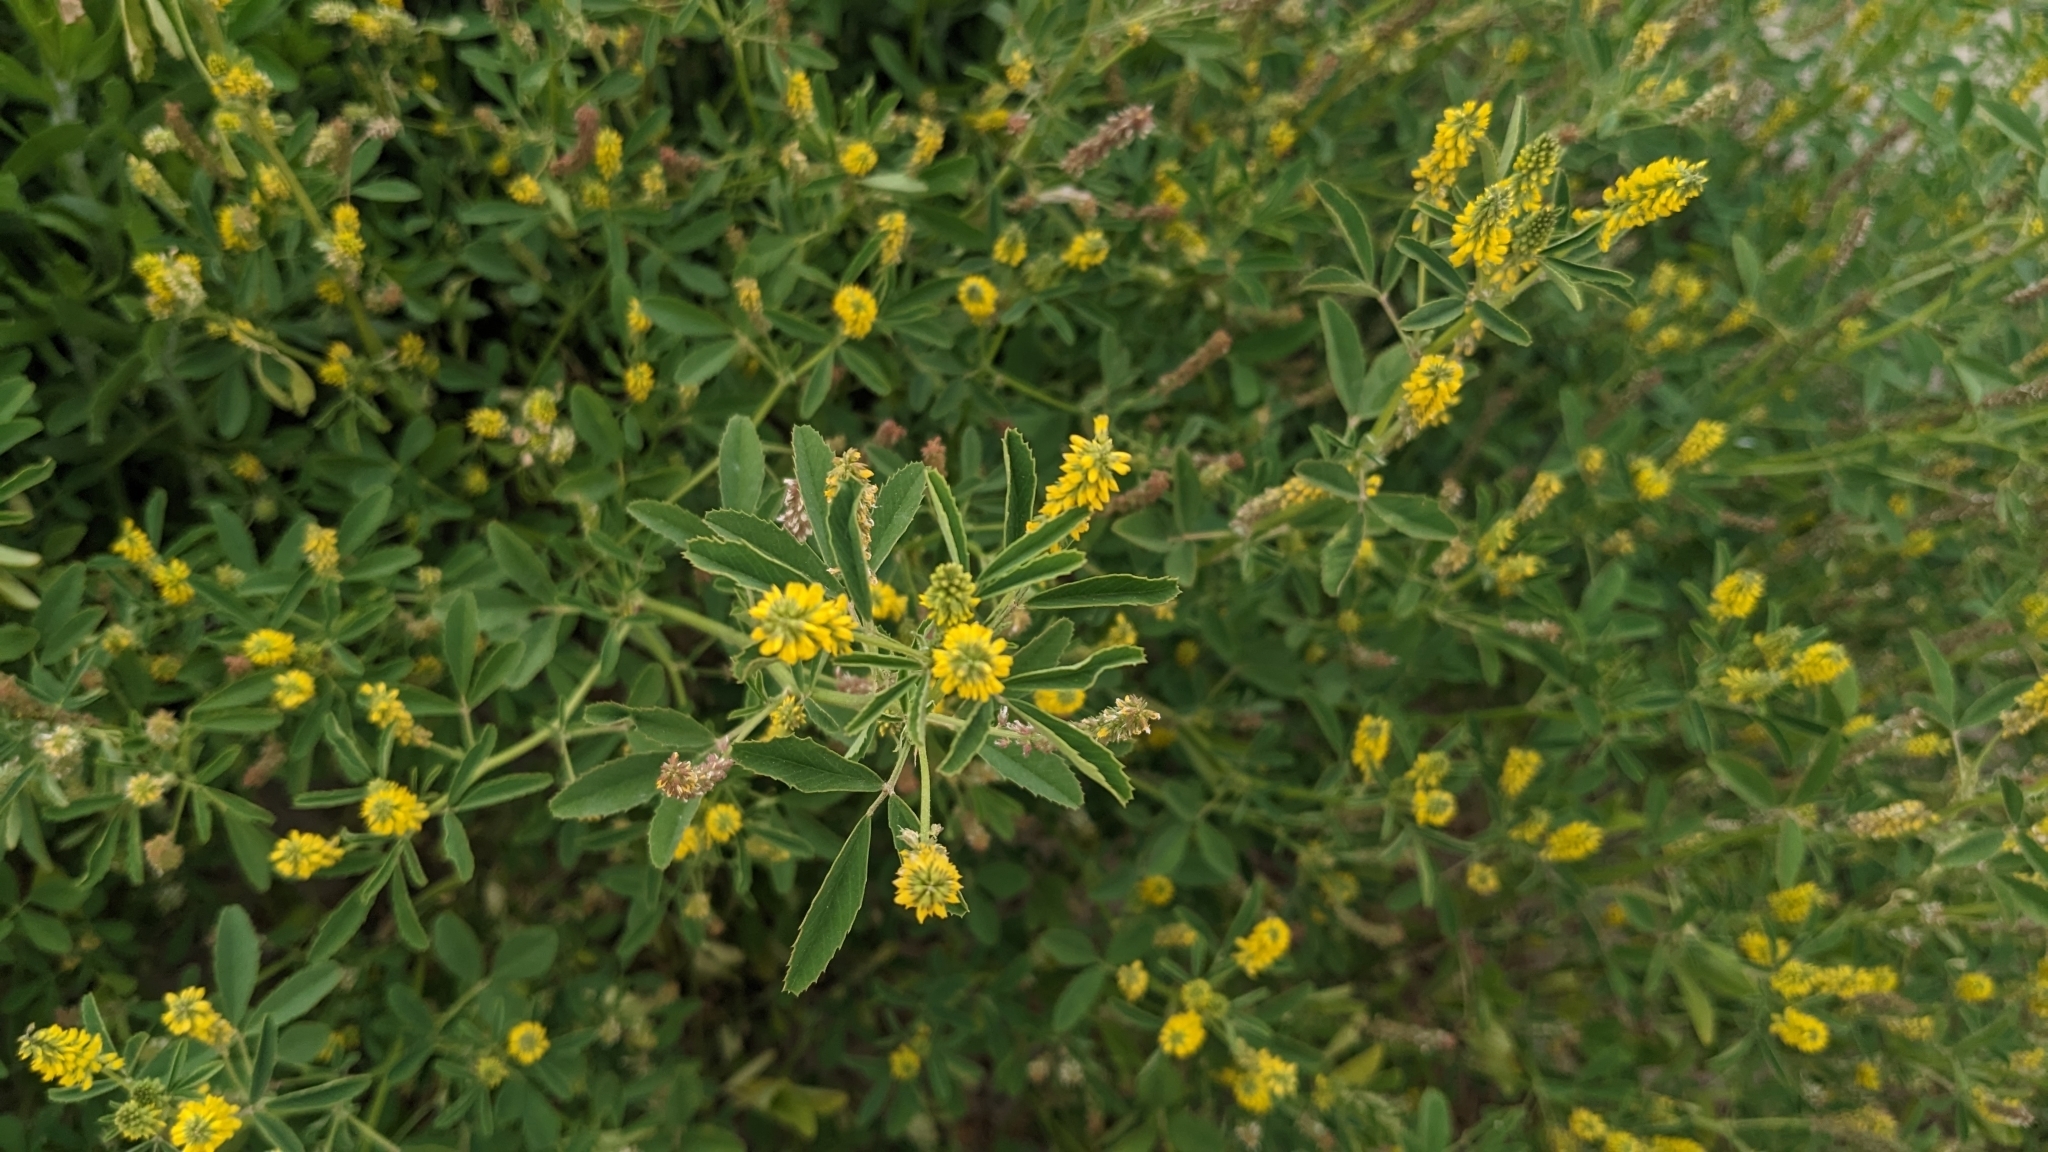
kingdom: Plantae
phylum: Tracheophyta
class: Magnoliopsida
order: Fabales
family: Fabaceae
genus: Melilotus
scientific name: Melilotus indicus
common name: Small melilot
